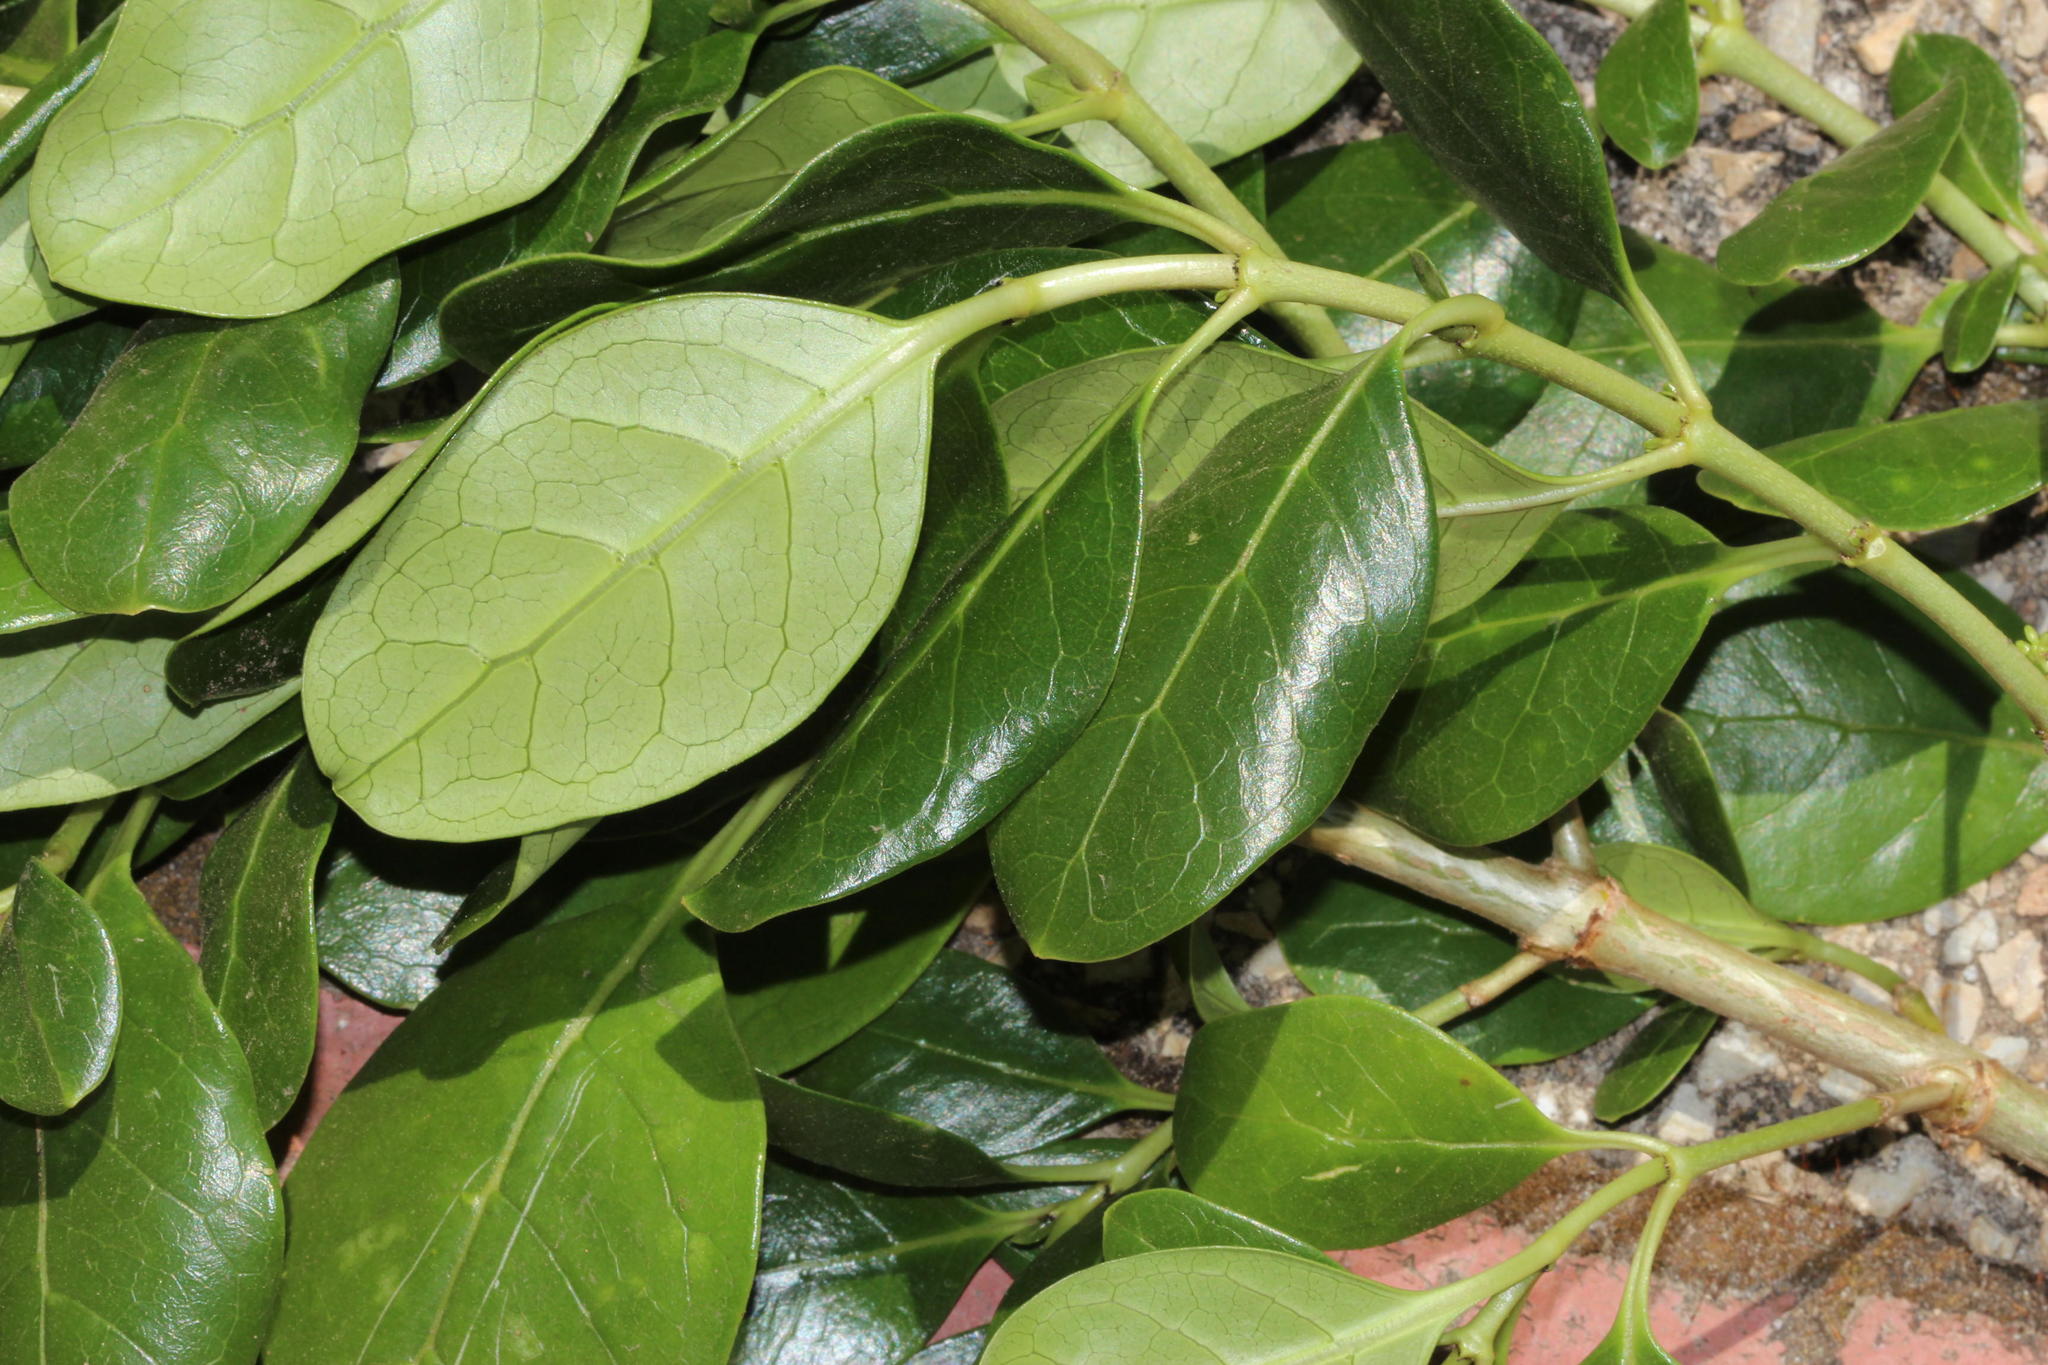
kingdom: Plantae
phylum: Tracheophyta
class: Magnoliopsida
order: Gentianales
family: Rubiaceae
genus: Coprosma
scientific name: Coprosma repens
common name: Tree bedstraw
